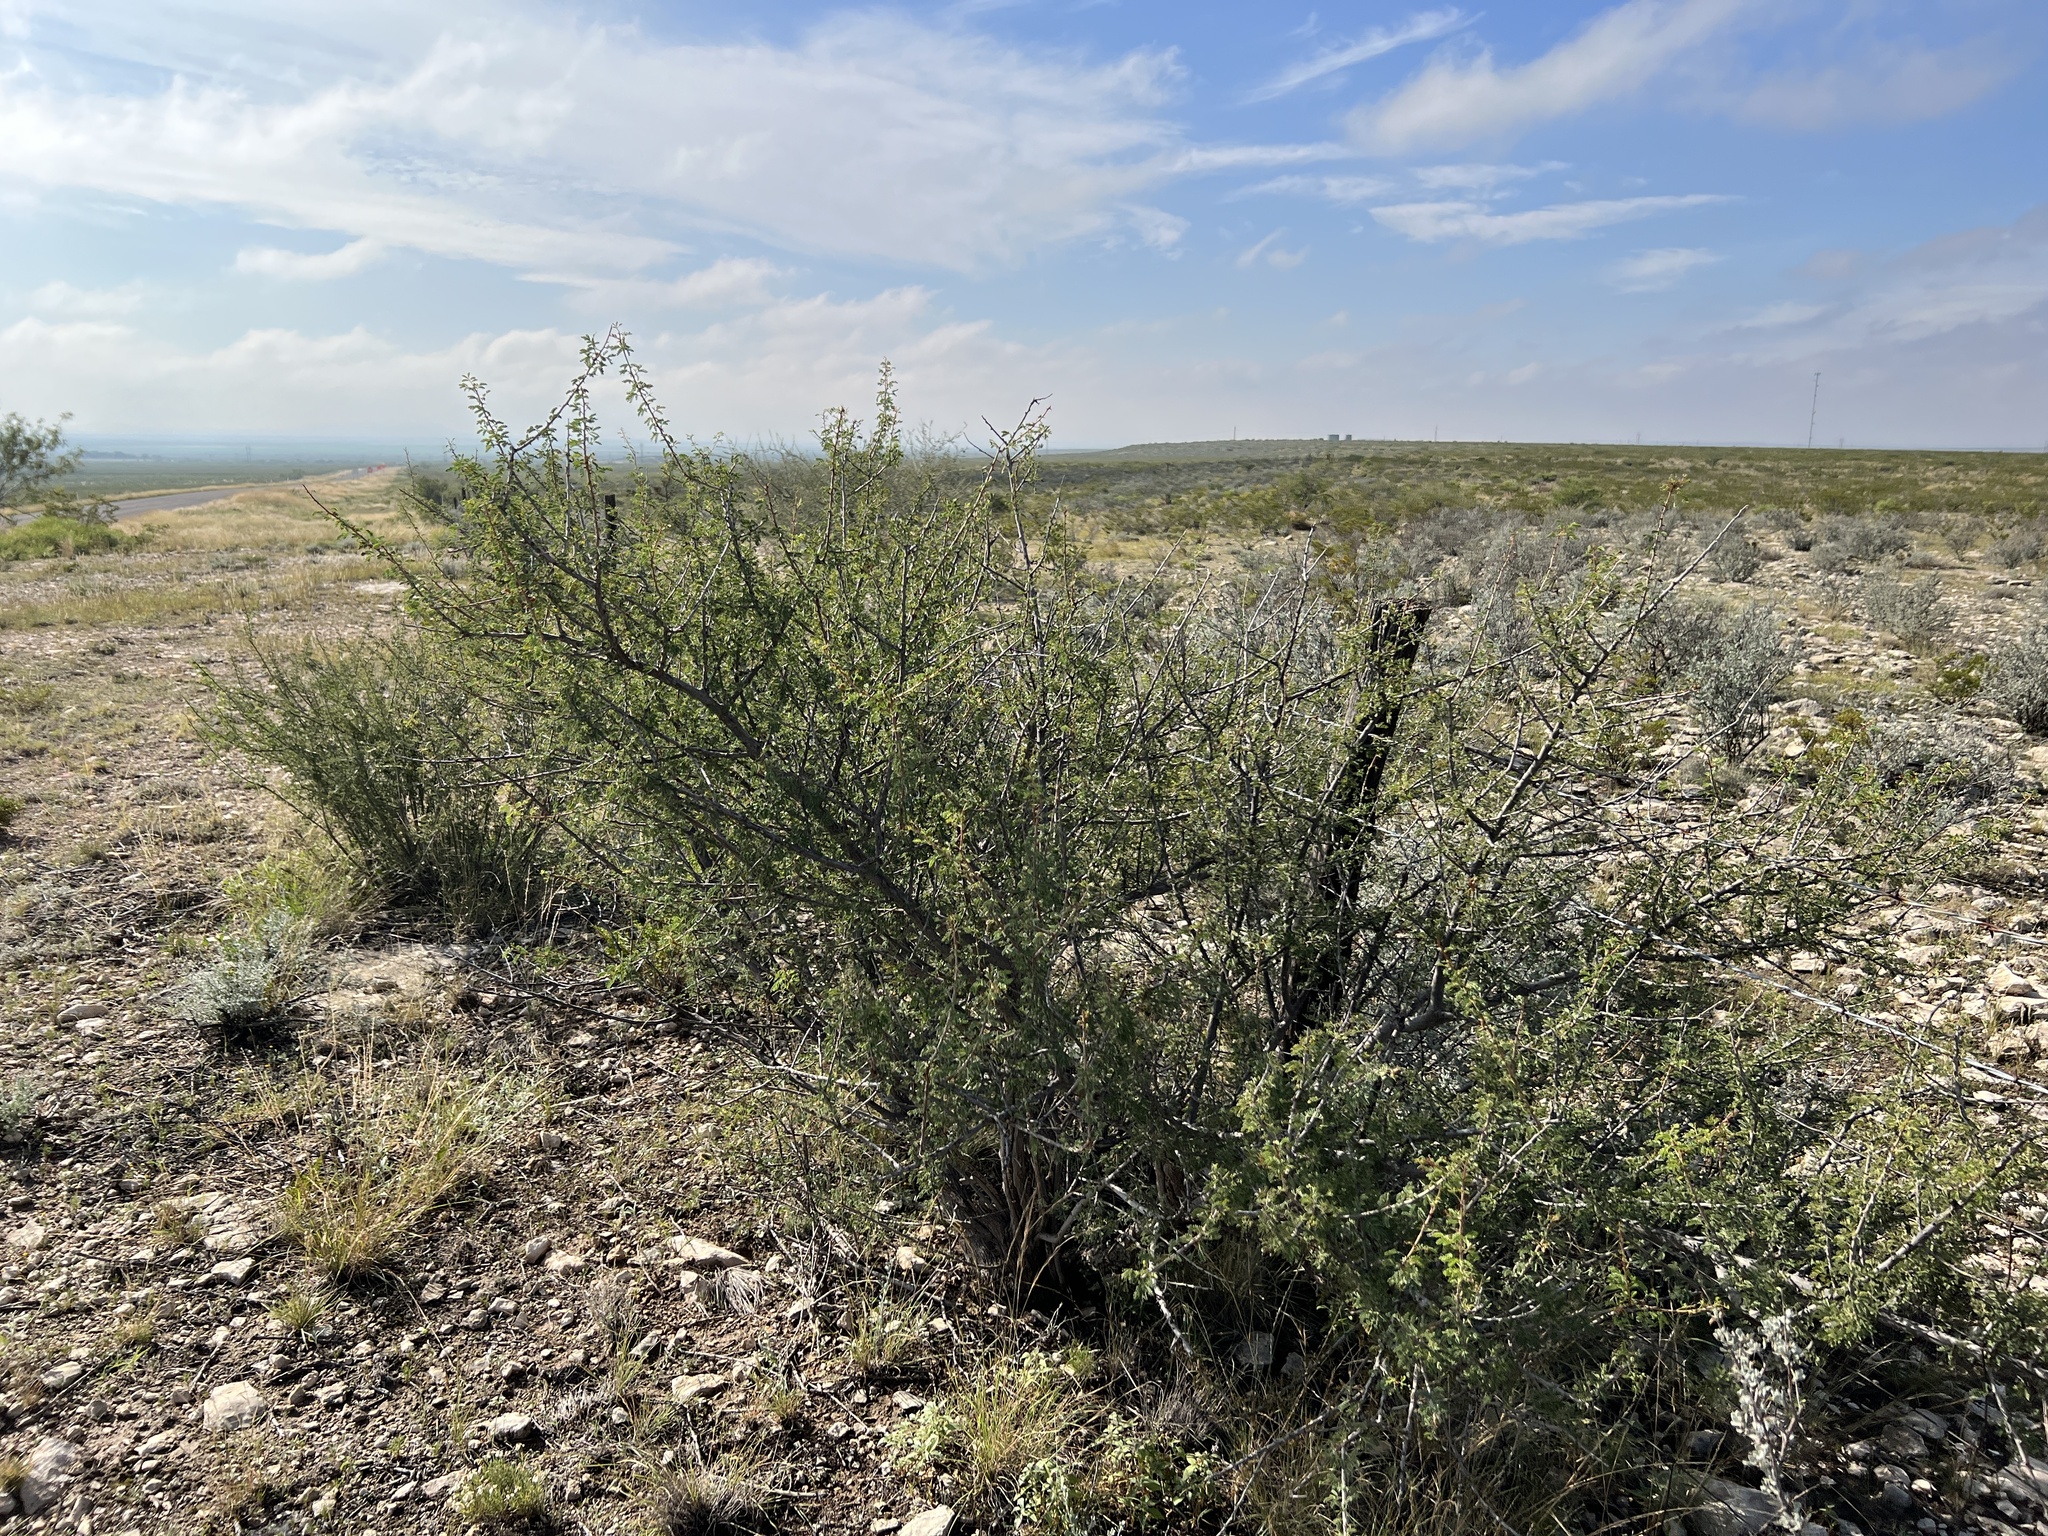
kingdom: Plantae
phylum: Tracheophyta
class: Magnoliopsida
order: Fabales
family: Fabaceae
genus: Senegalia
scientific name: Senegalia greggii
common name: Texas-mimosa
